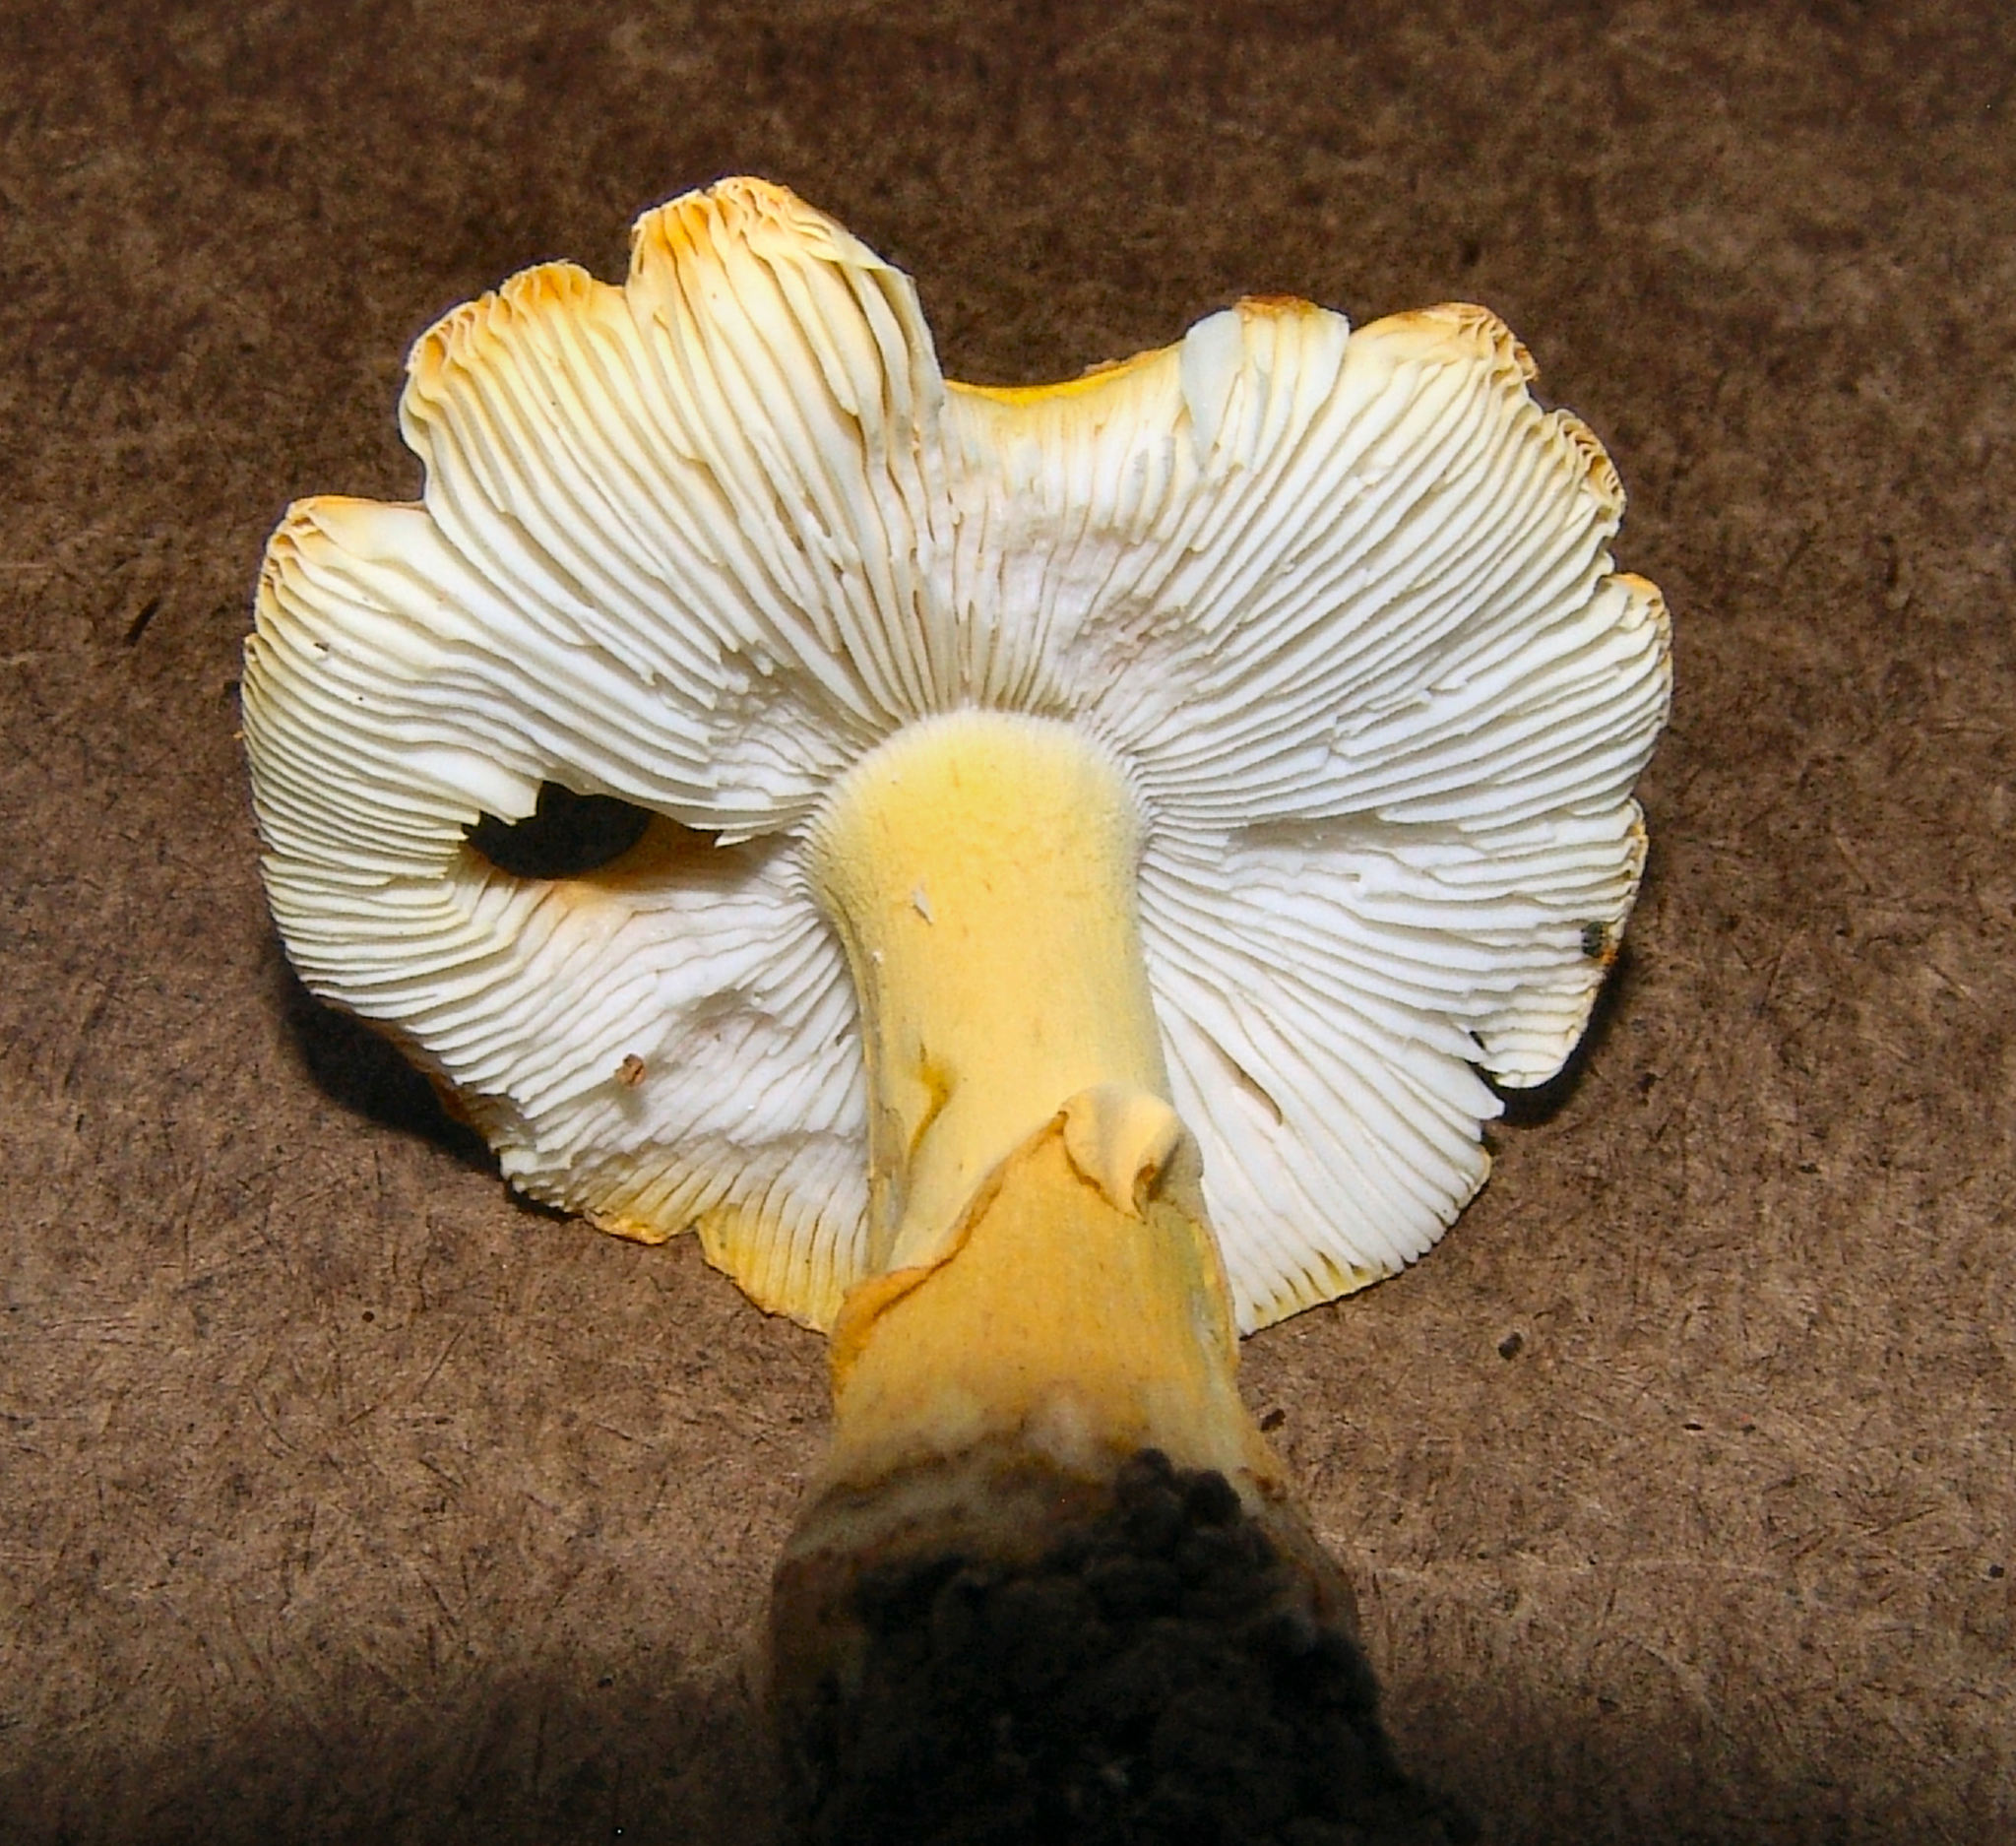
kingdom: Fungi
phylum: Basidiomycota
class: Agaricomycetes
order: Agaricales
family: Amanitaceae
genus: Amanita
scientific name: Amanita flavorubens
